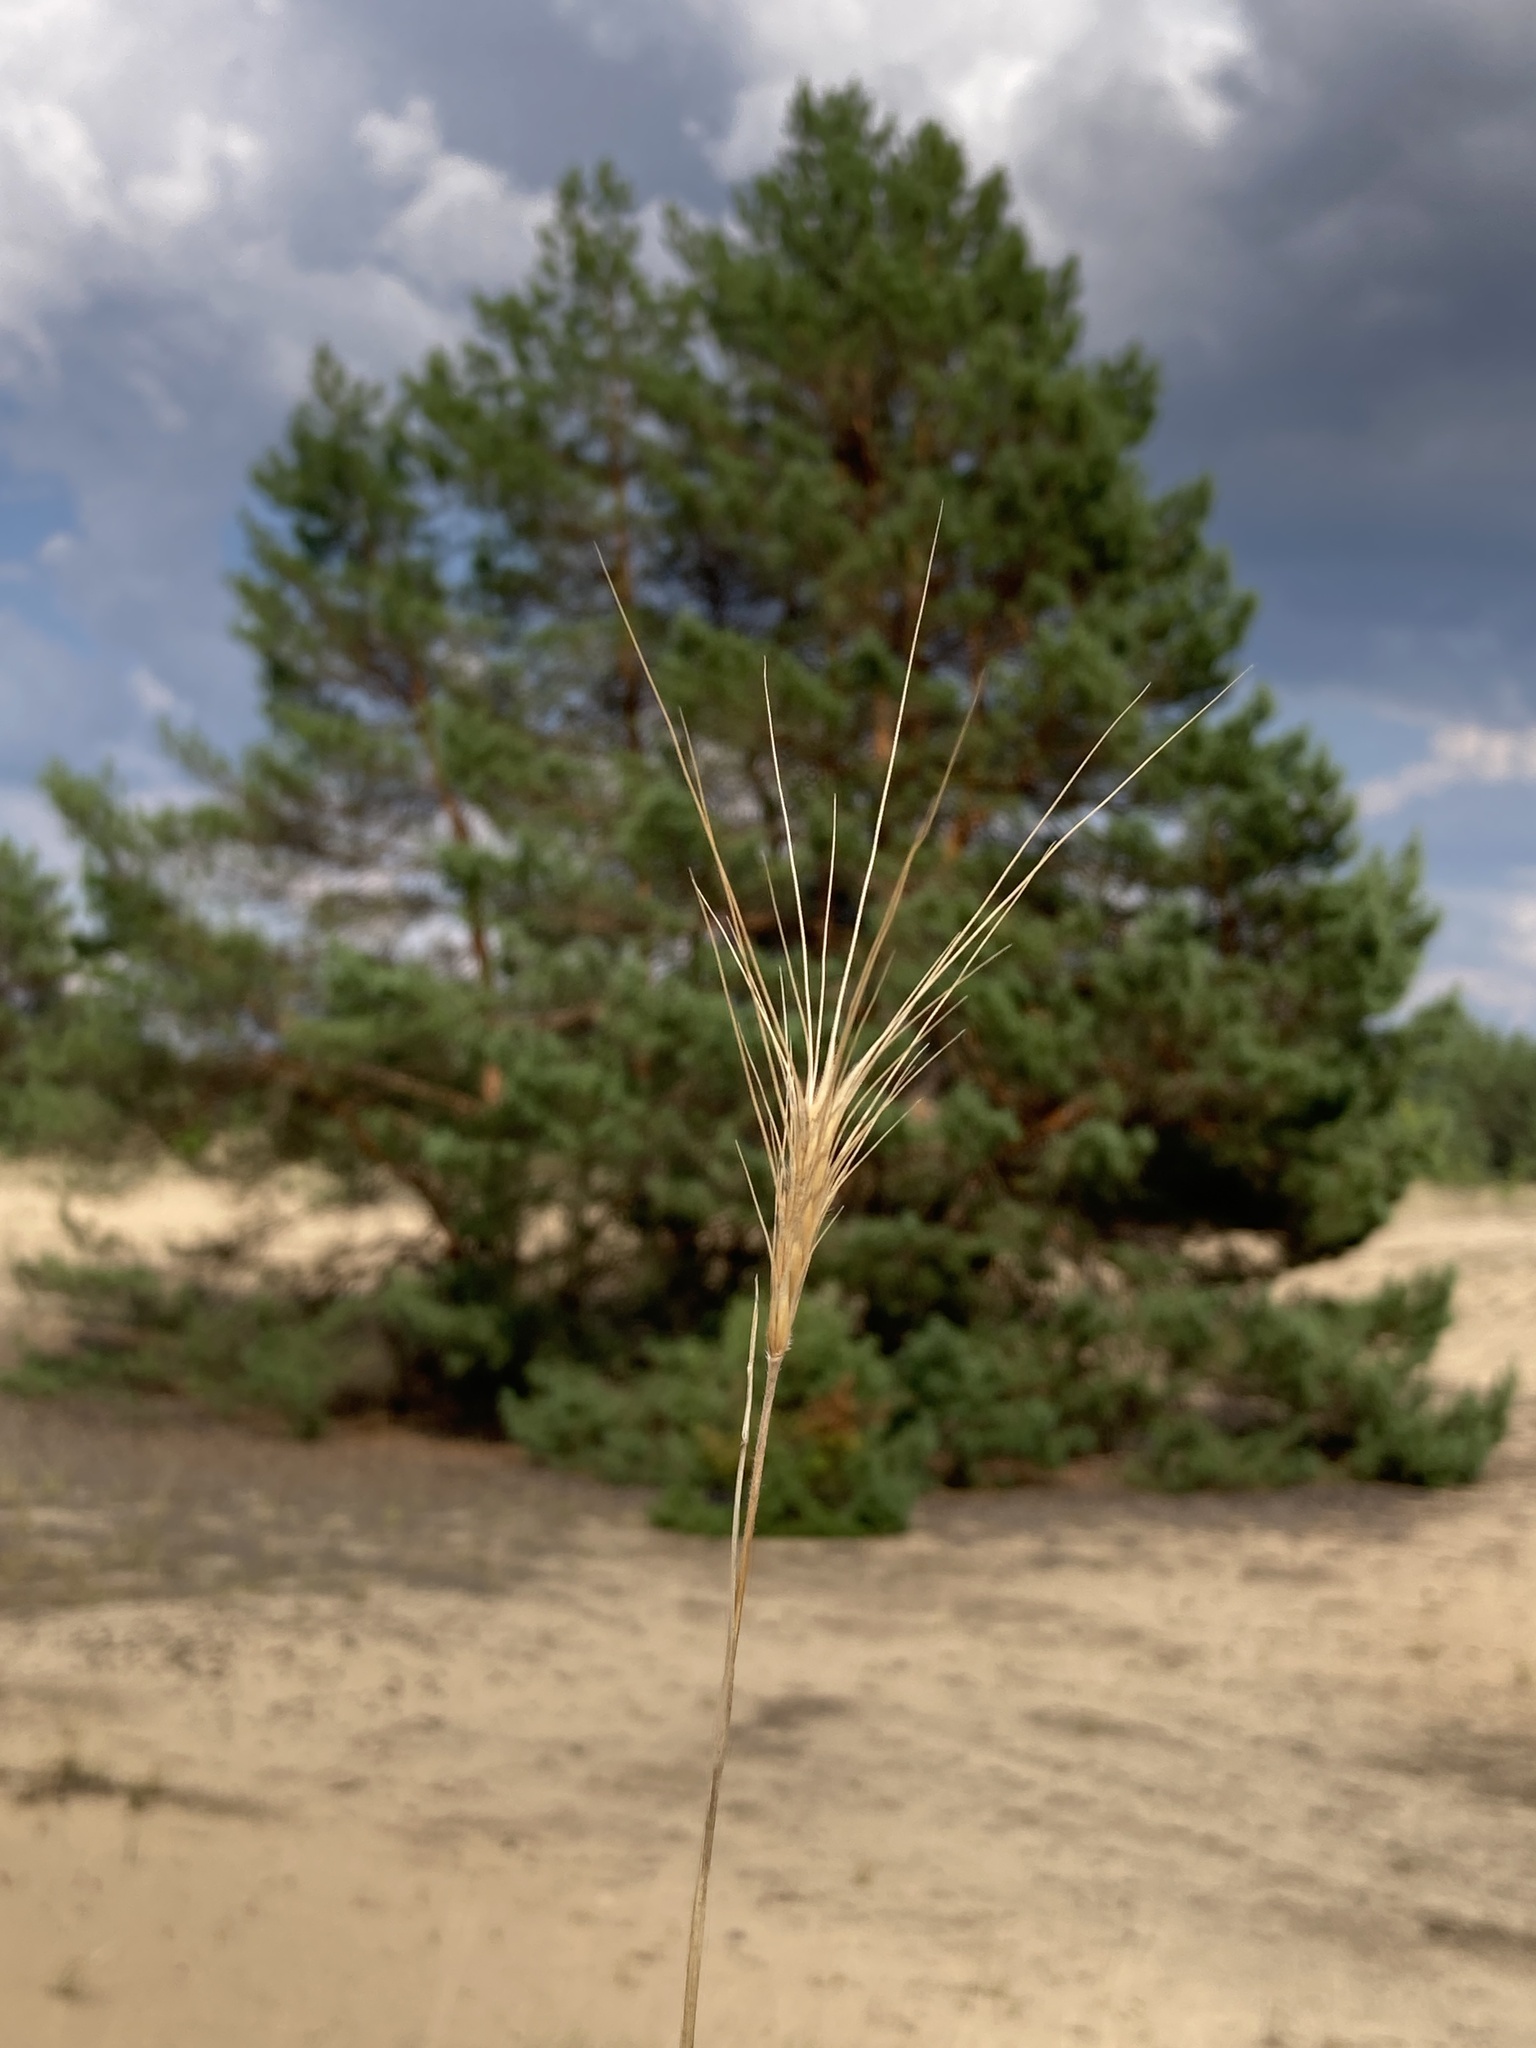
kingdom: Plantae
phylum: Tracheophyta
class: Liliopsida
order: Poales
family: Poaceae
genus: Secale
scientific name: Secale sylvestre
